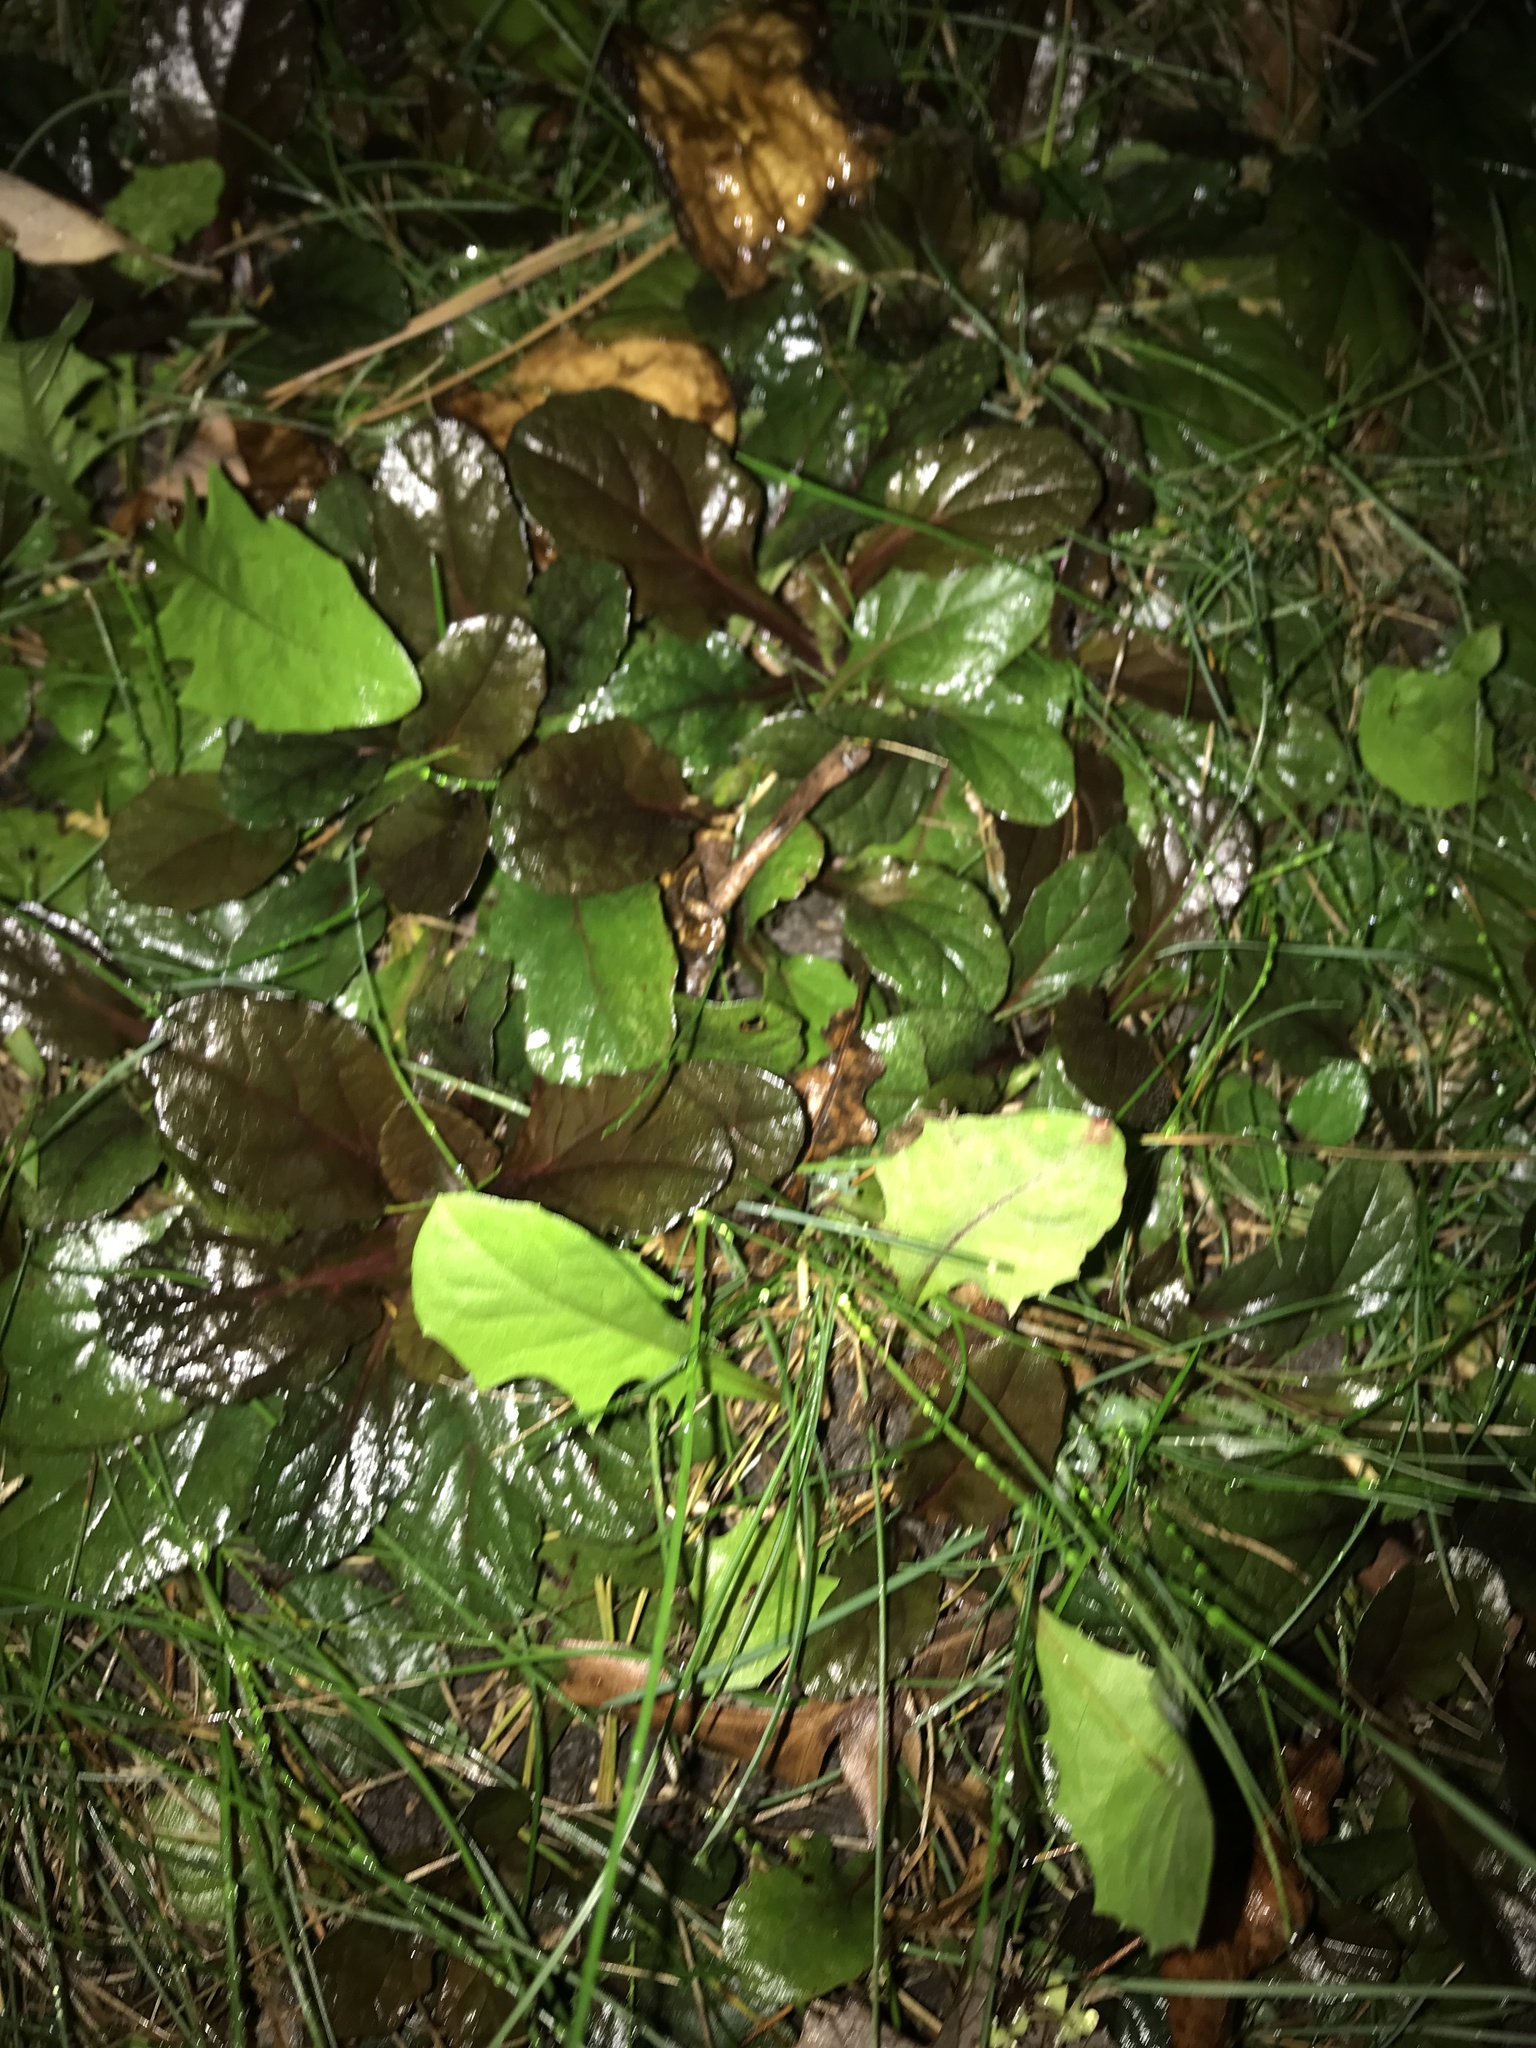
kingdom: Plantae
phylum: Tracheophyta
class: Magnoliopsida
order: Lamiales
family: Lamiaceae
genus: Ajuga
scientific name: Ajuga reptans
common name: Bugle
